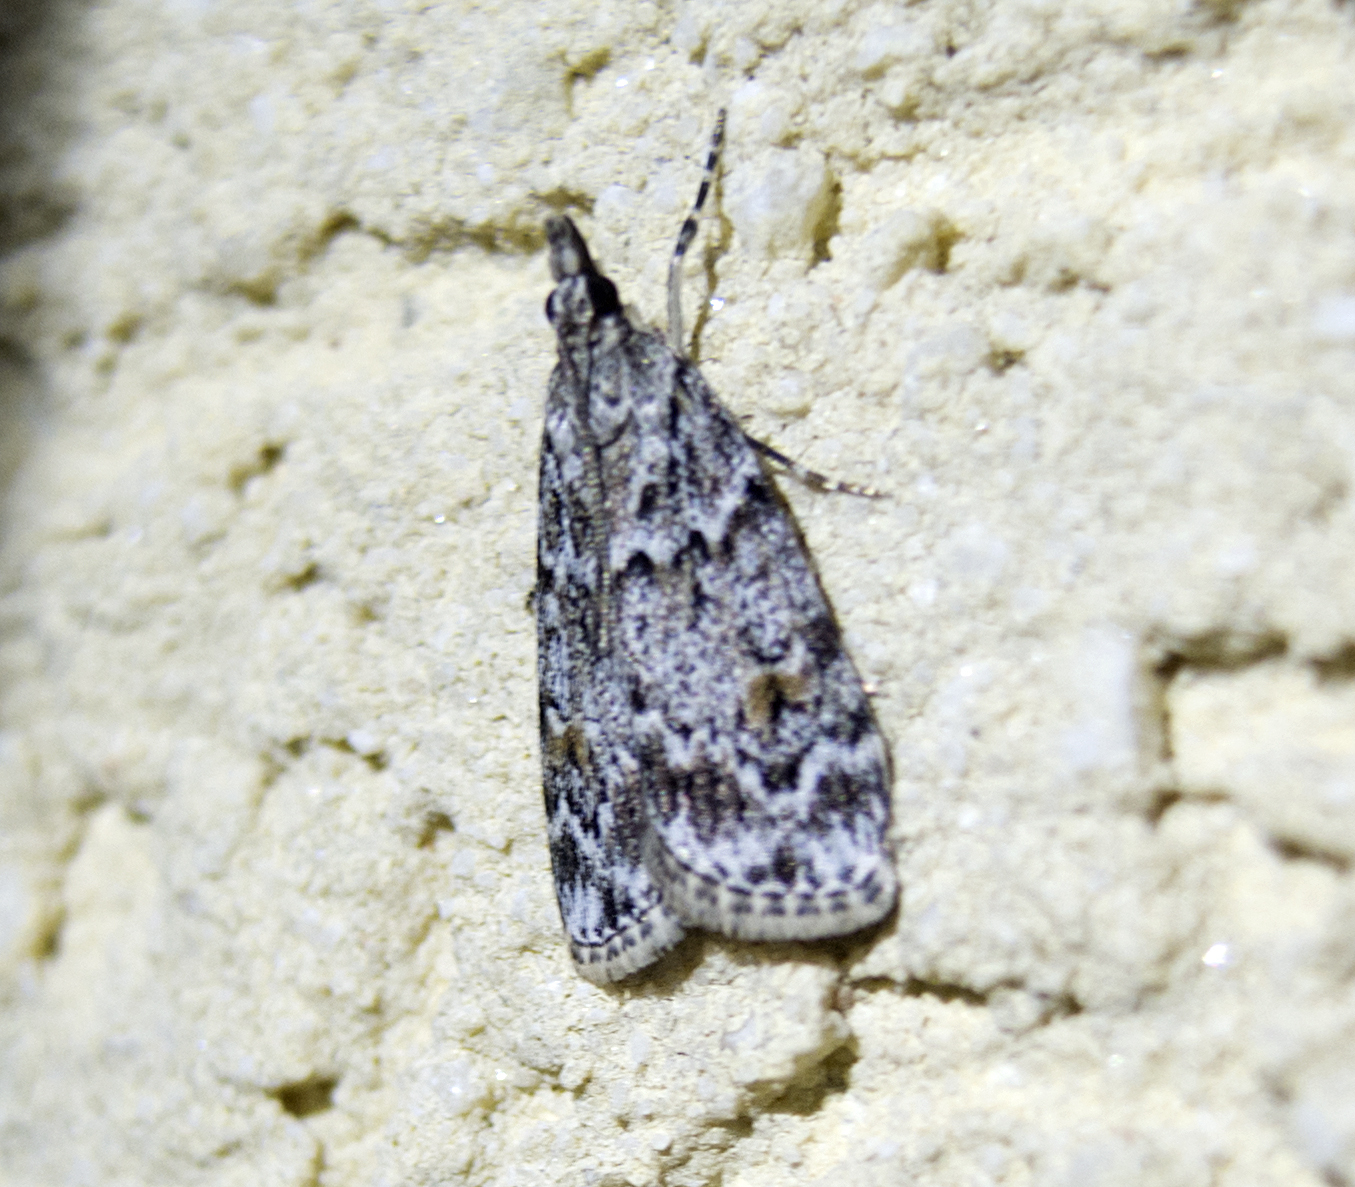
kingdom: Animalia
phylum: Arthropoda
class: Insecta
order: Lepidoptera
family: Crambidae
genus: Scoparia
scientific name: Scoparia
